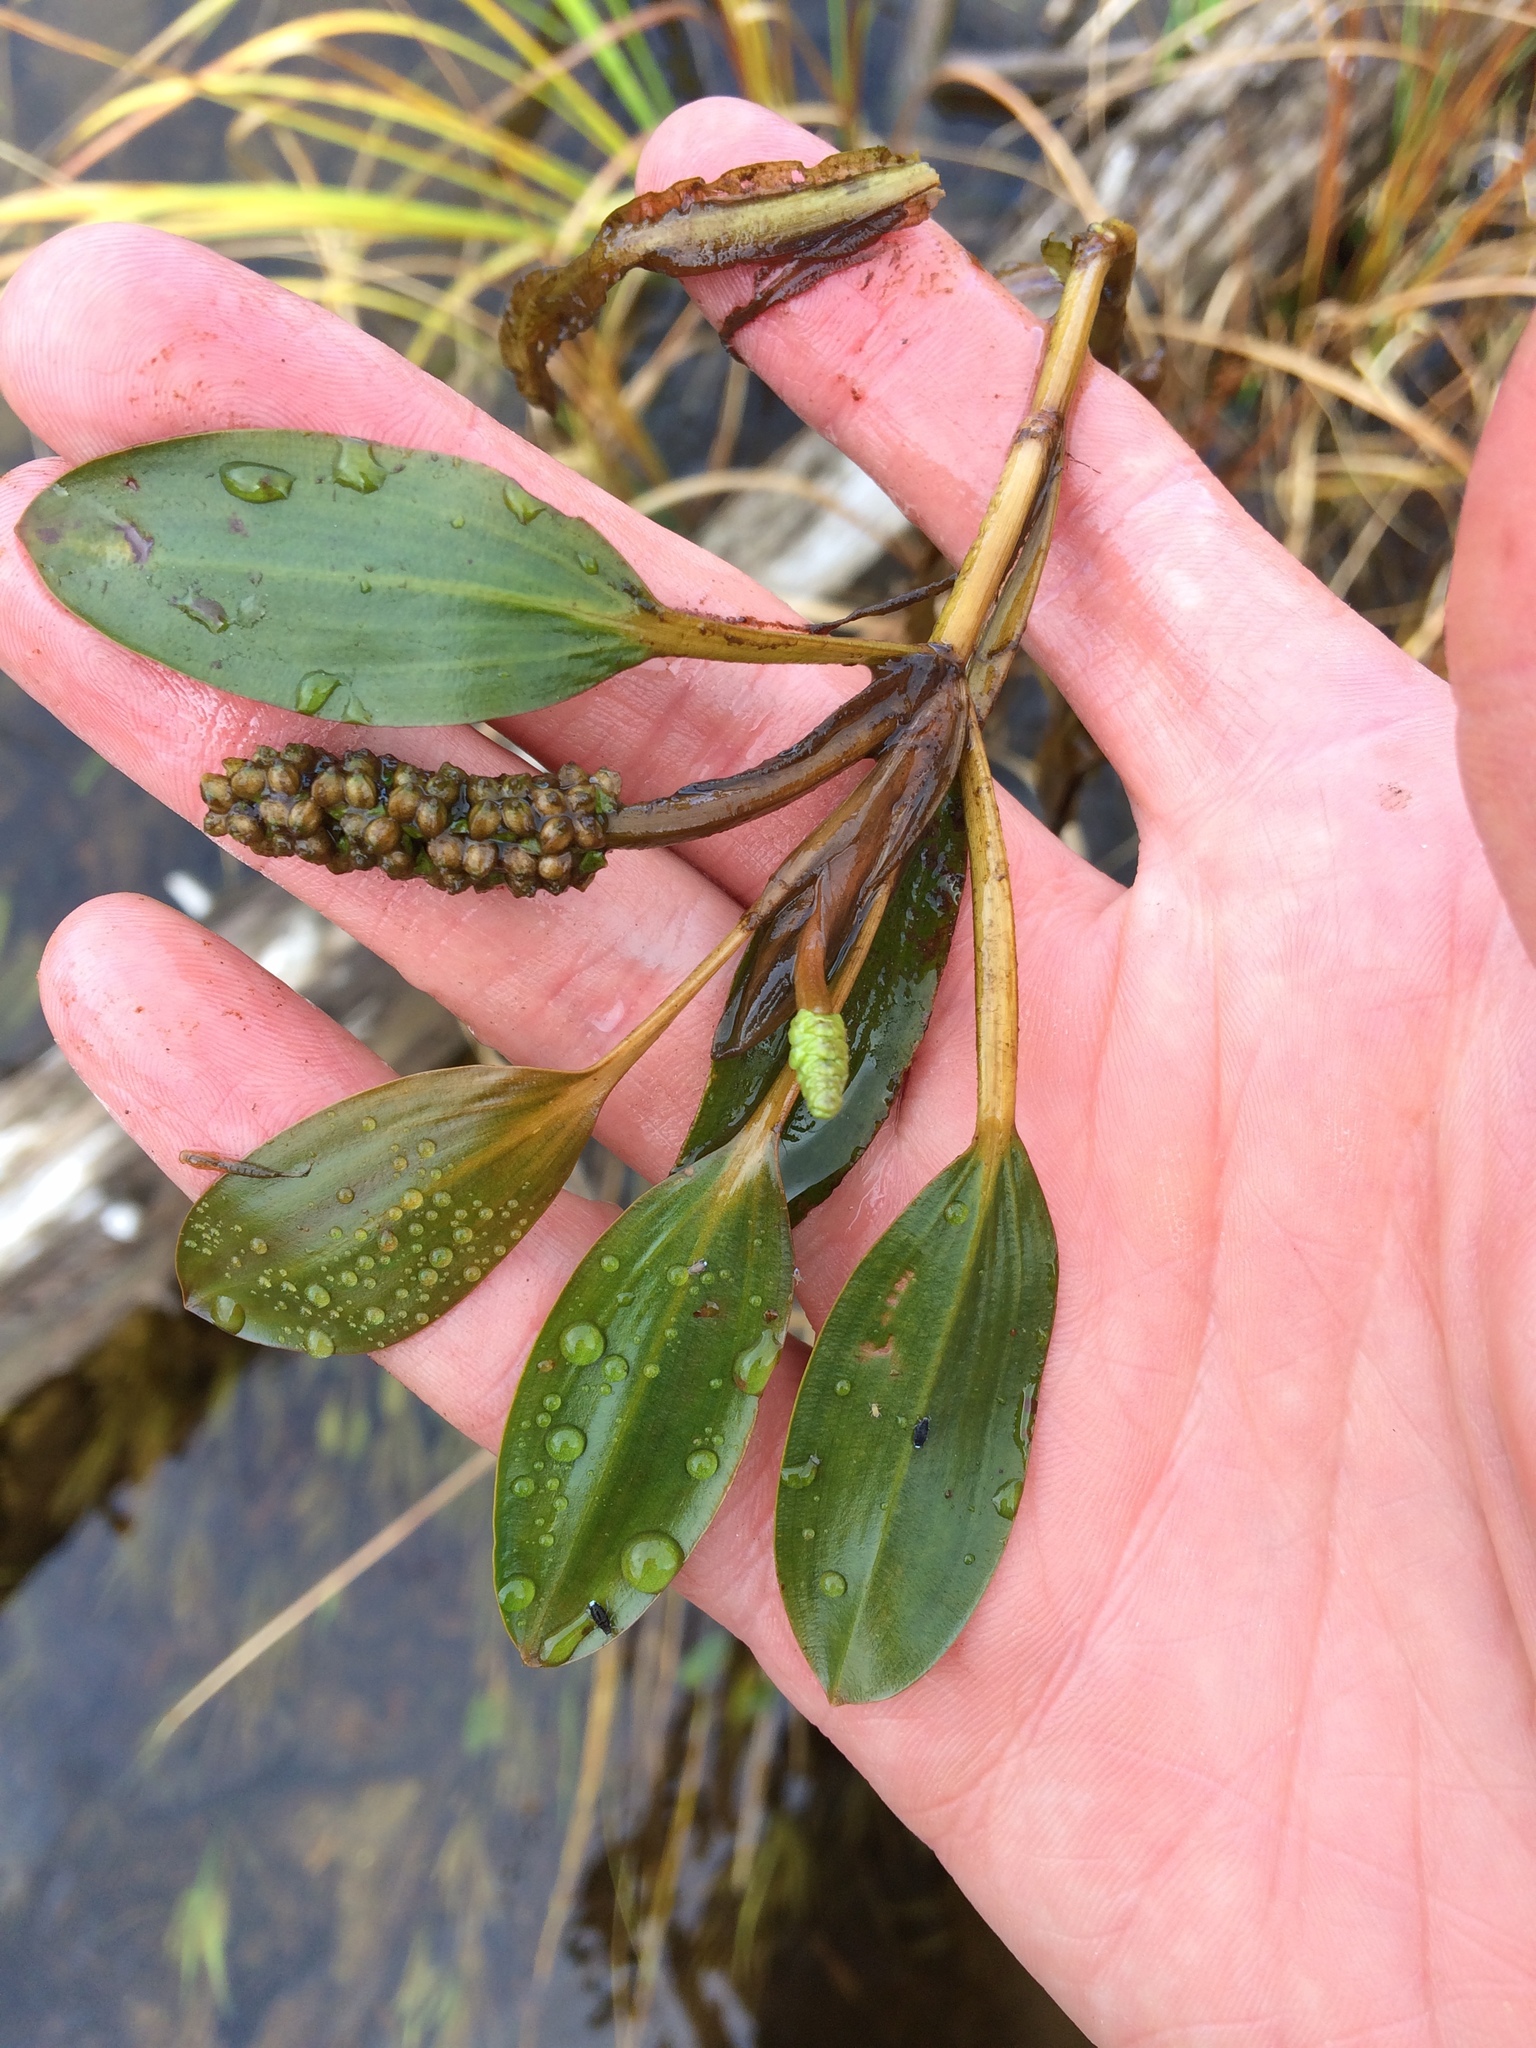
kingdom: Plantae
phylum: Tracheophyta
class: Liliopsida
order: Alismatales
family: Potamogetonaceae
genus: Potamogeton
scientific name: Potamogeton amplifolius
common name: Broad-leaved pondweed
